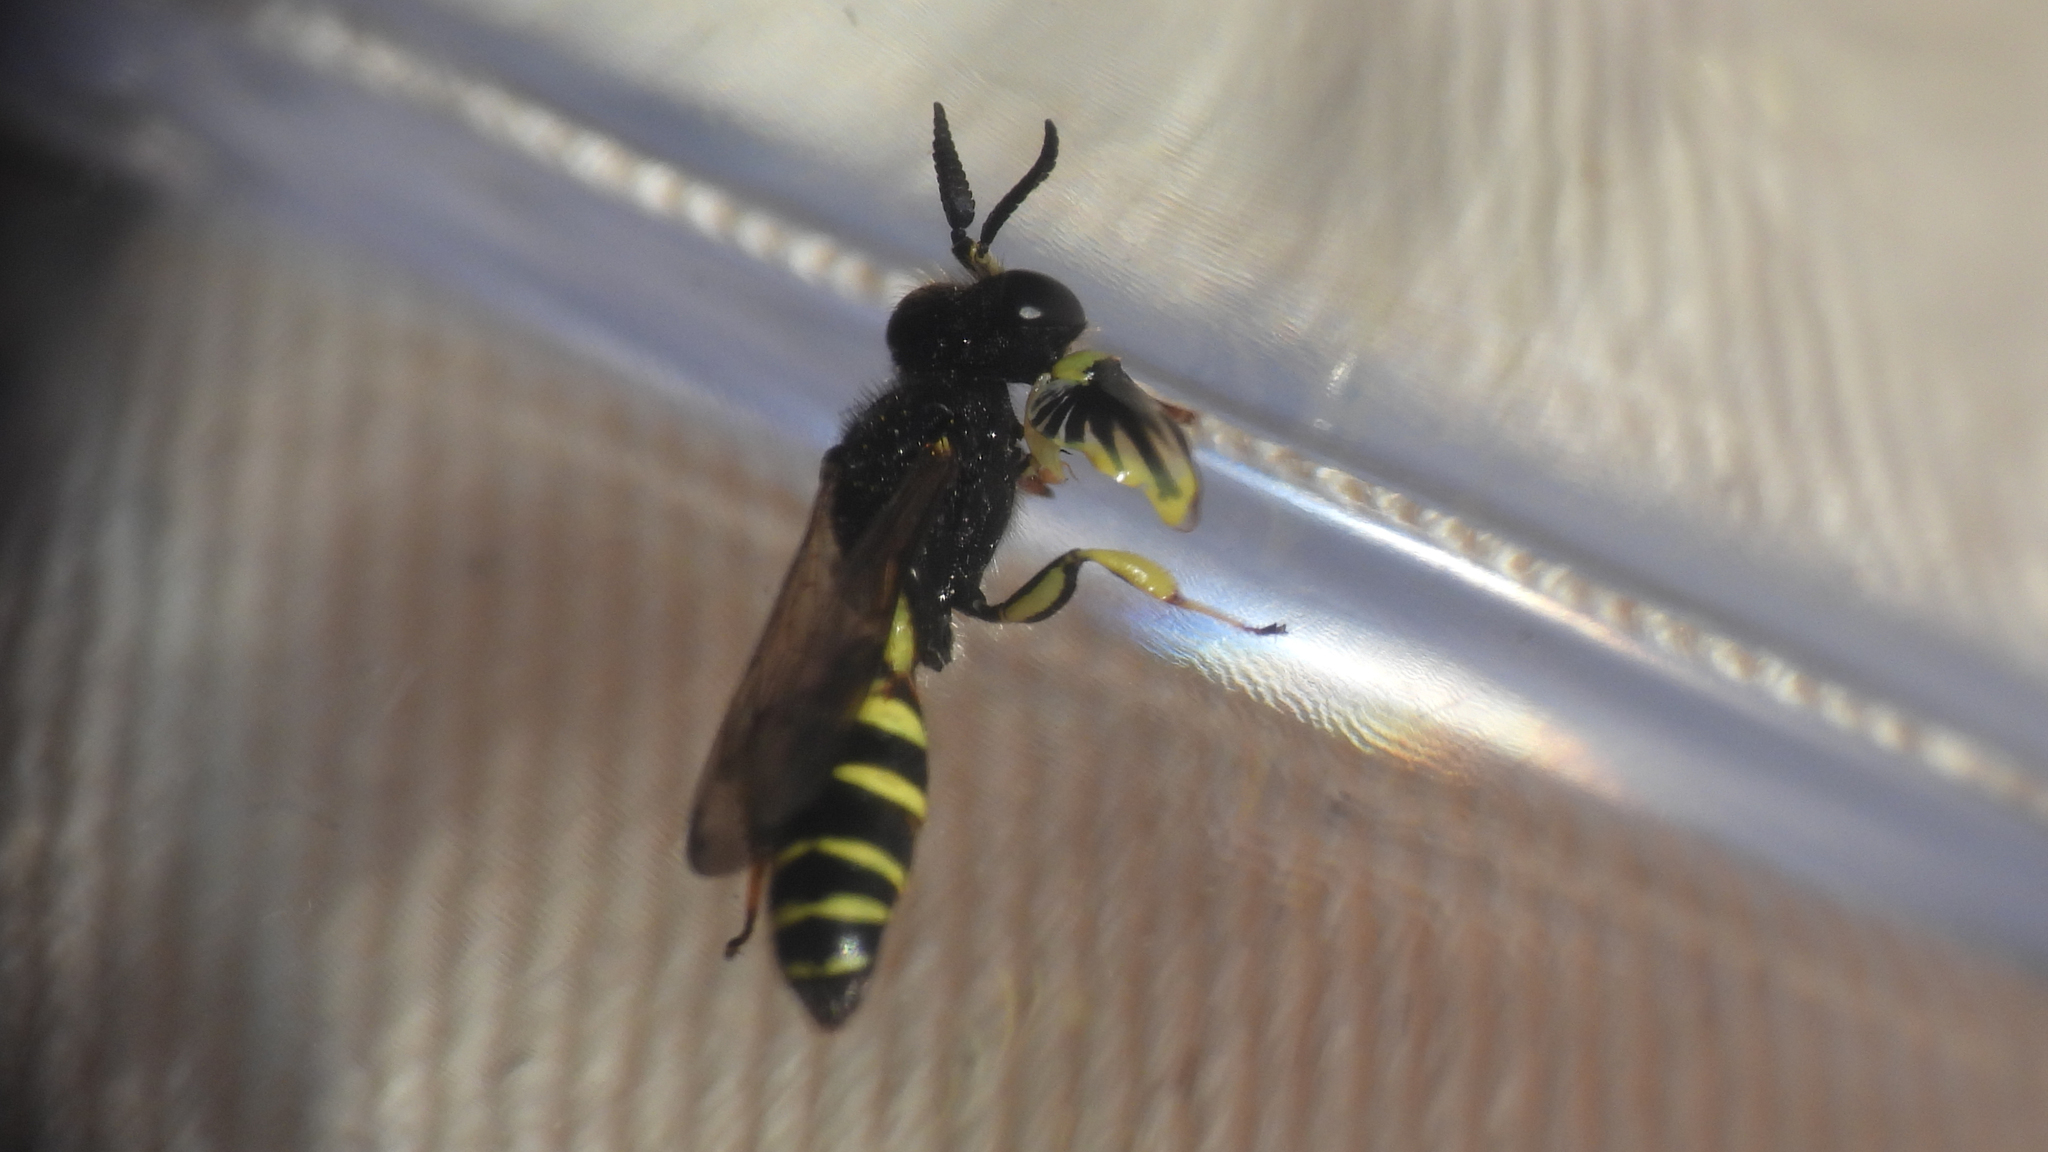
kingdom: Animalia
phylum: Arthropoda
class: Insecta
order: Hymenoptera
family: Crabronidae
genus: Crabro
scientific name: Crabro latipes
